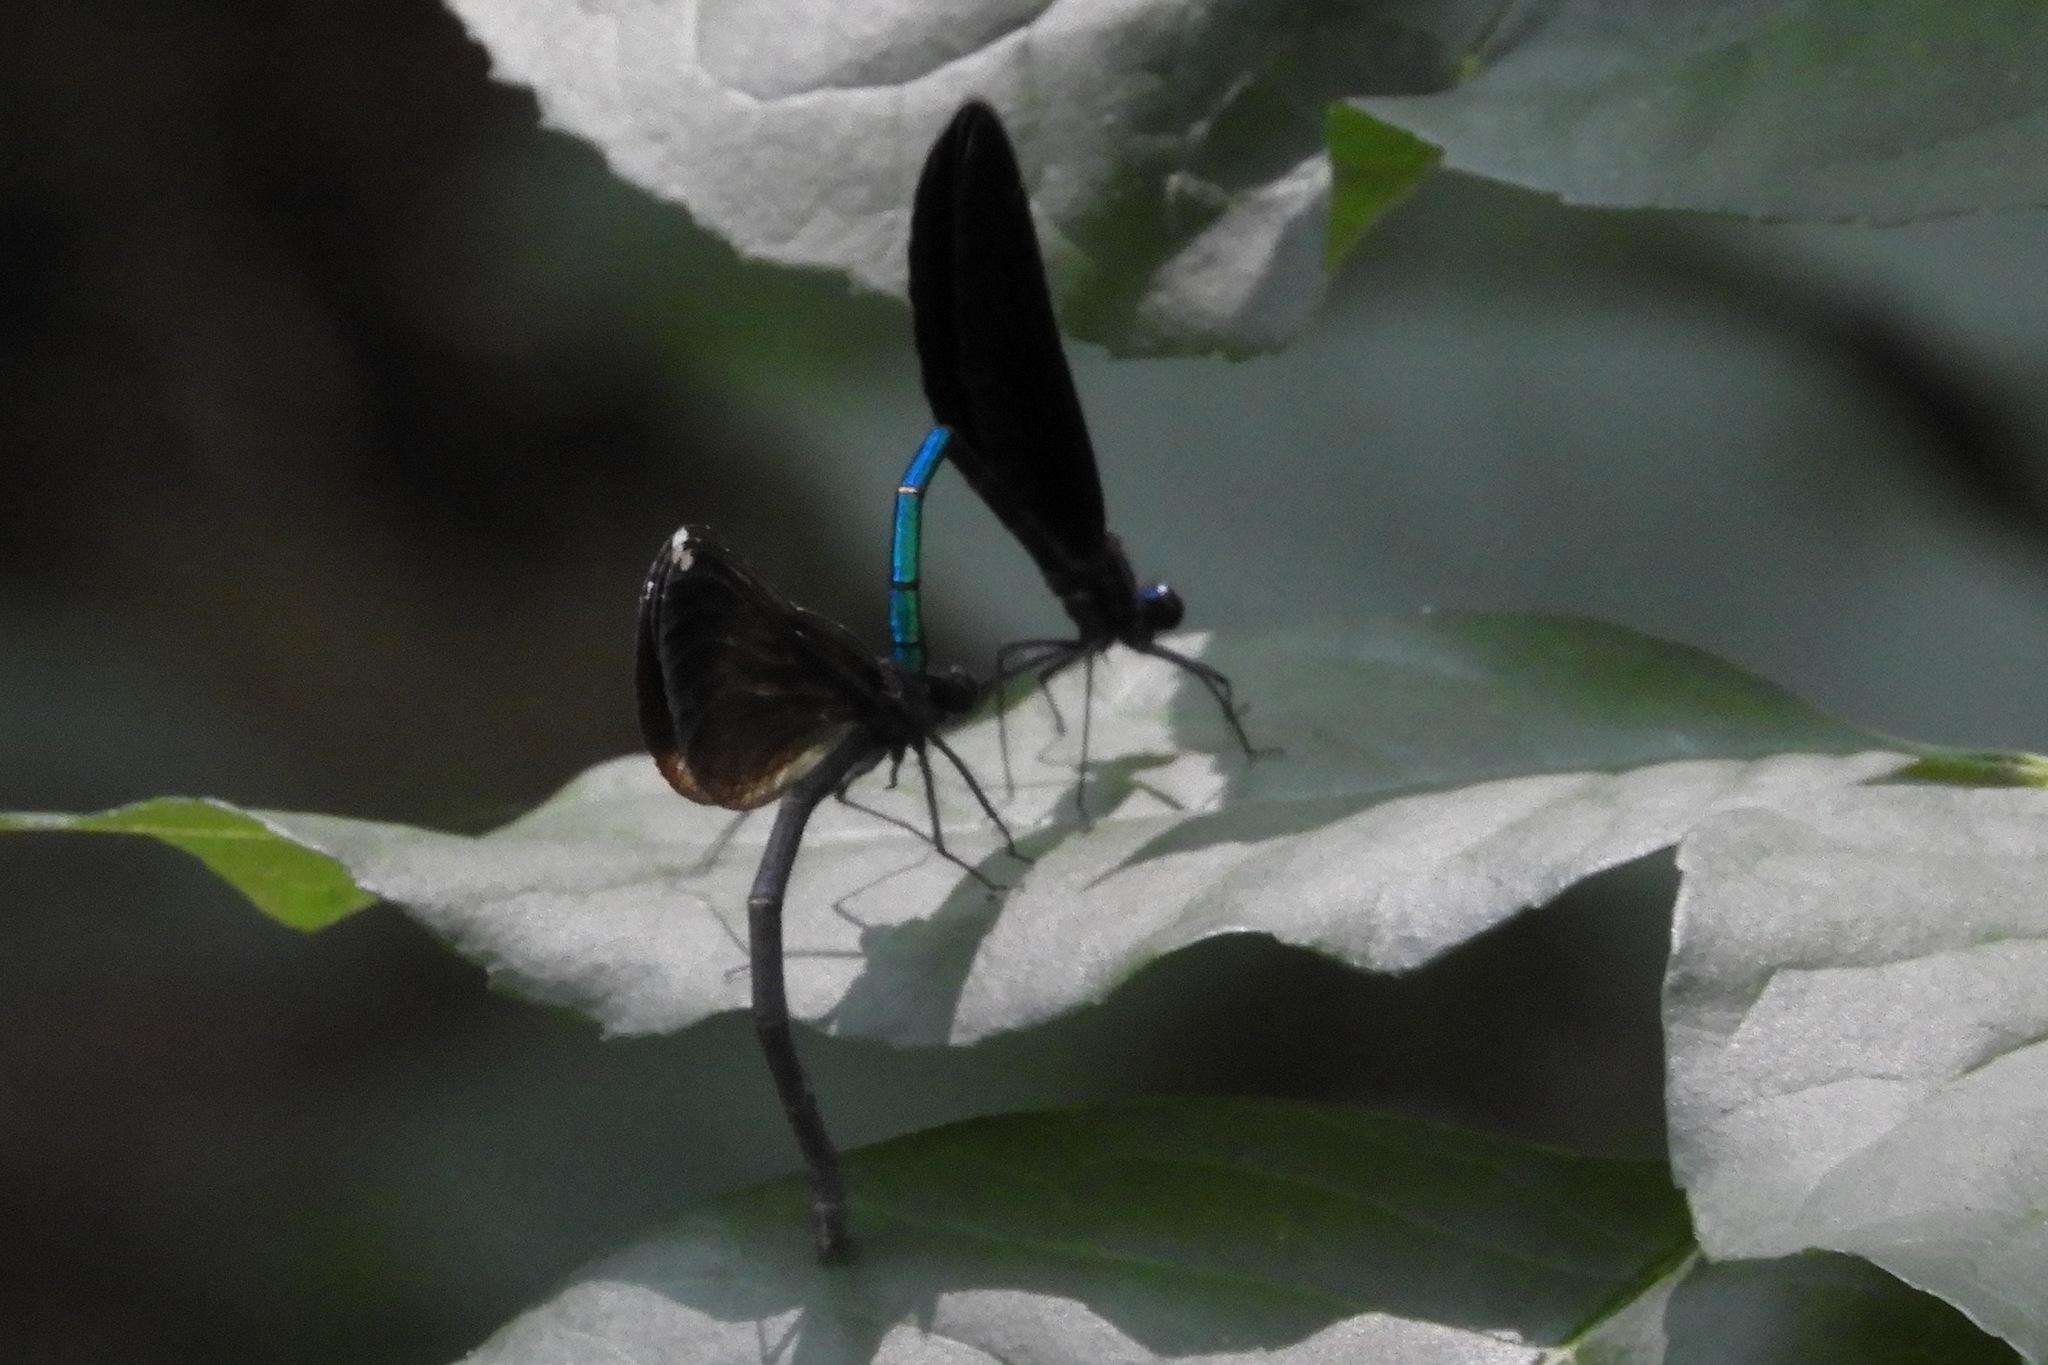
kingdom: Animalia
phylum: Arthropoda
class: Insecta
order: Odonata
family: Calopterygidae
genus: Calopteryx
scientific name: Calopteryx maculata
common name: Ebony jewelwing
